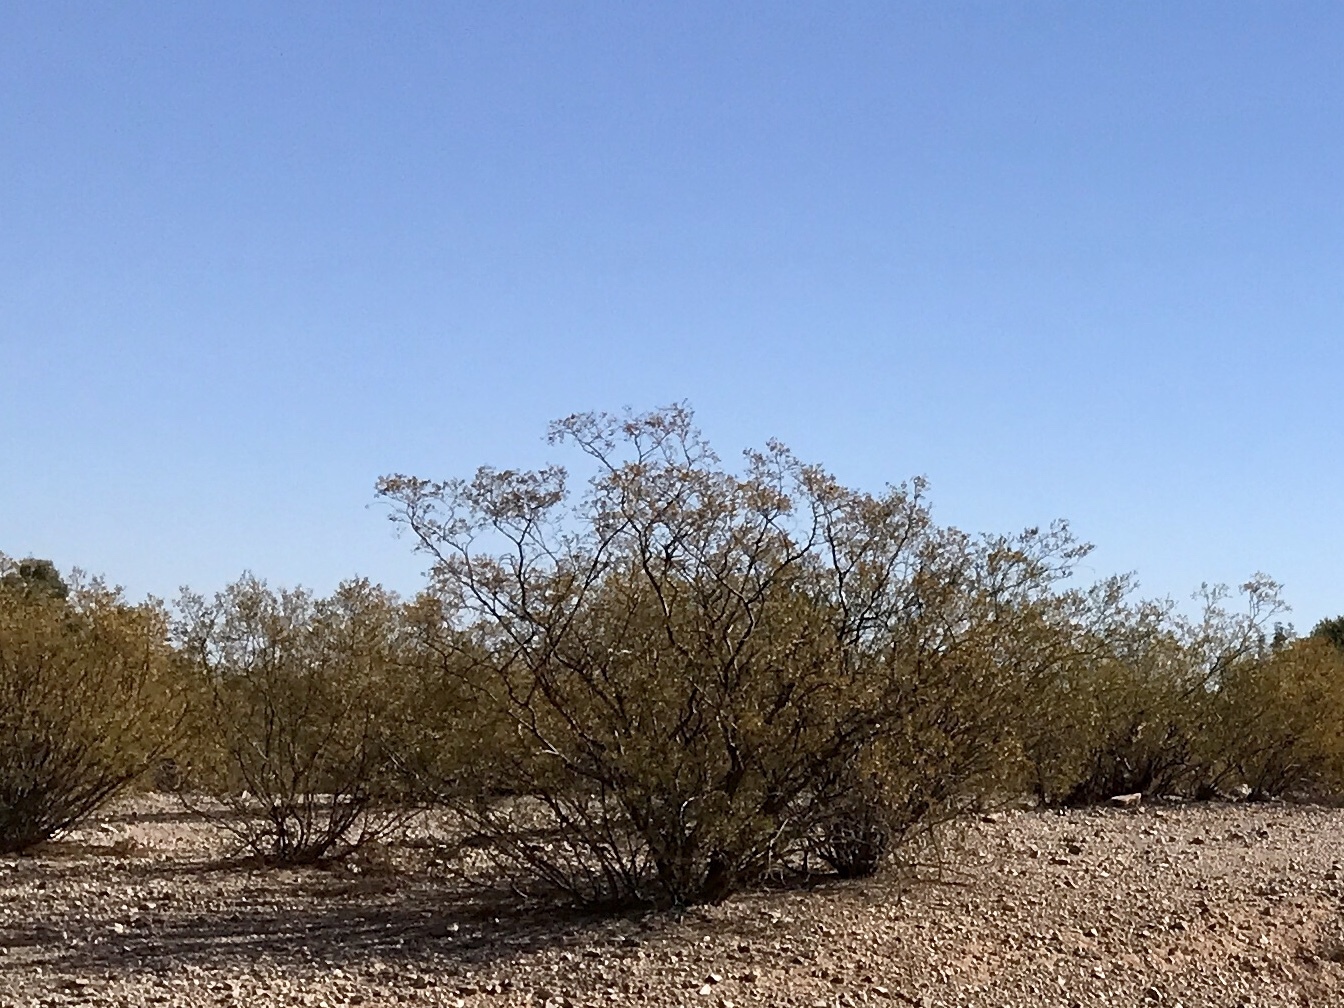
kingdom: Plantae
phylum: Tracheophyta
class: Magnoliopsida
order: Zygophyllales
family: Zygophyllaceae
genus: Larrea
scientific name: Larrea tridentata
